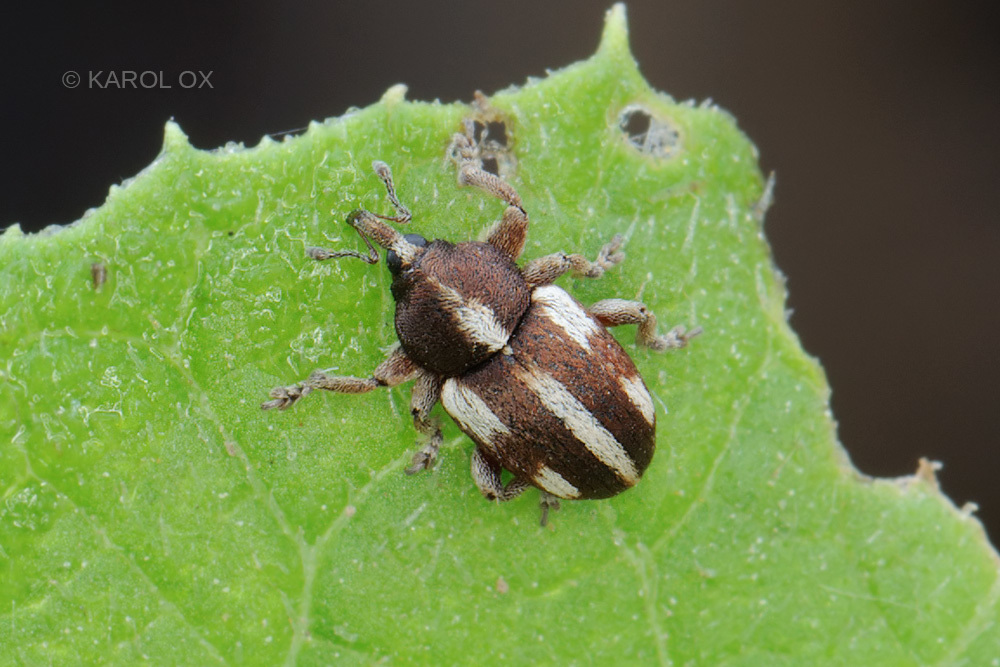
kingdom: Animalia
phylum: Arthropoda
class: Insecta
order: Coleoptera
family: Curculionidae
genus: Tychius
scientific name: Tychius quinquepunctatus
